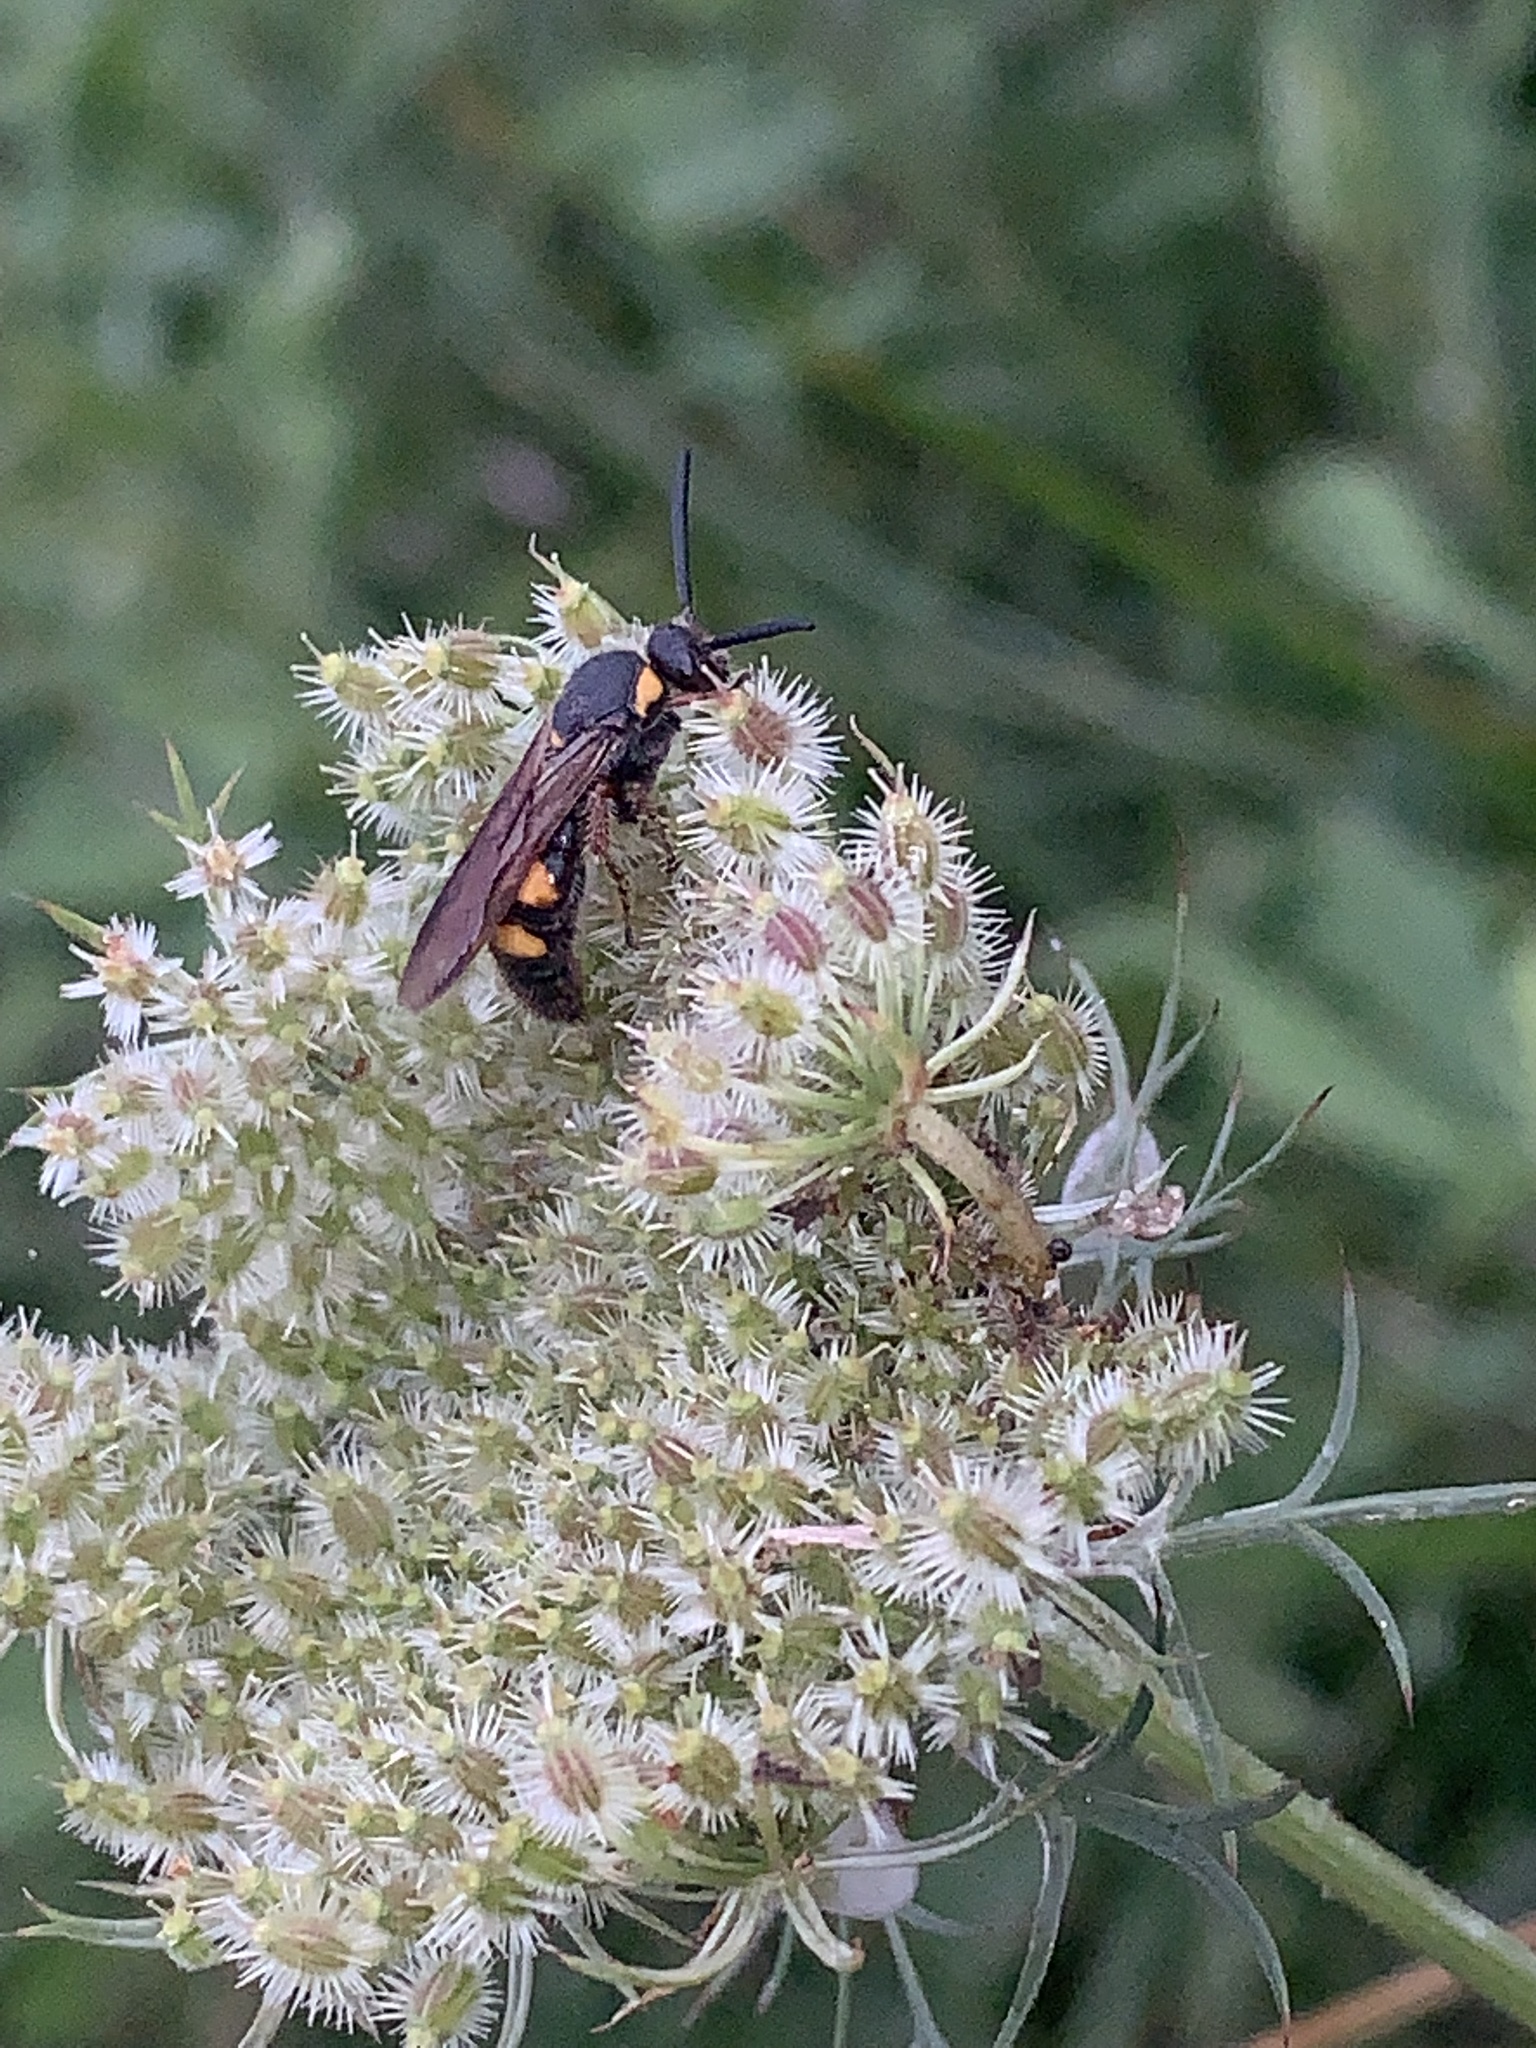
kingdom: Animalia
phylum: Arthropoda
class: Insecta
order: Hymenoptera
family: Scoliidae
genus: Scolia
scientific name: Scolia nobilitata
